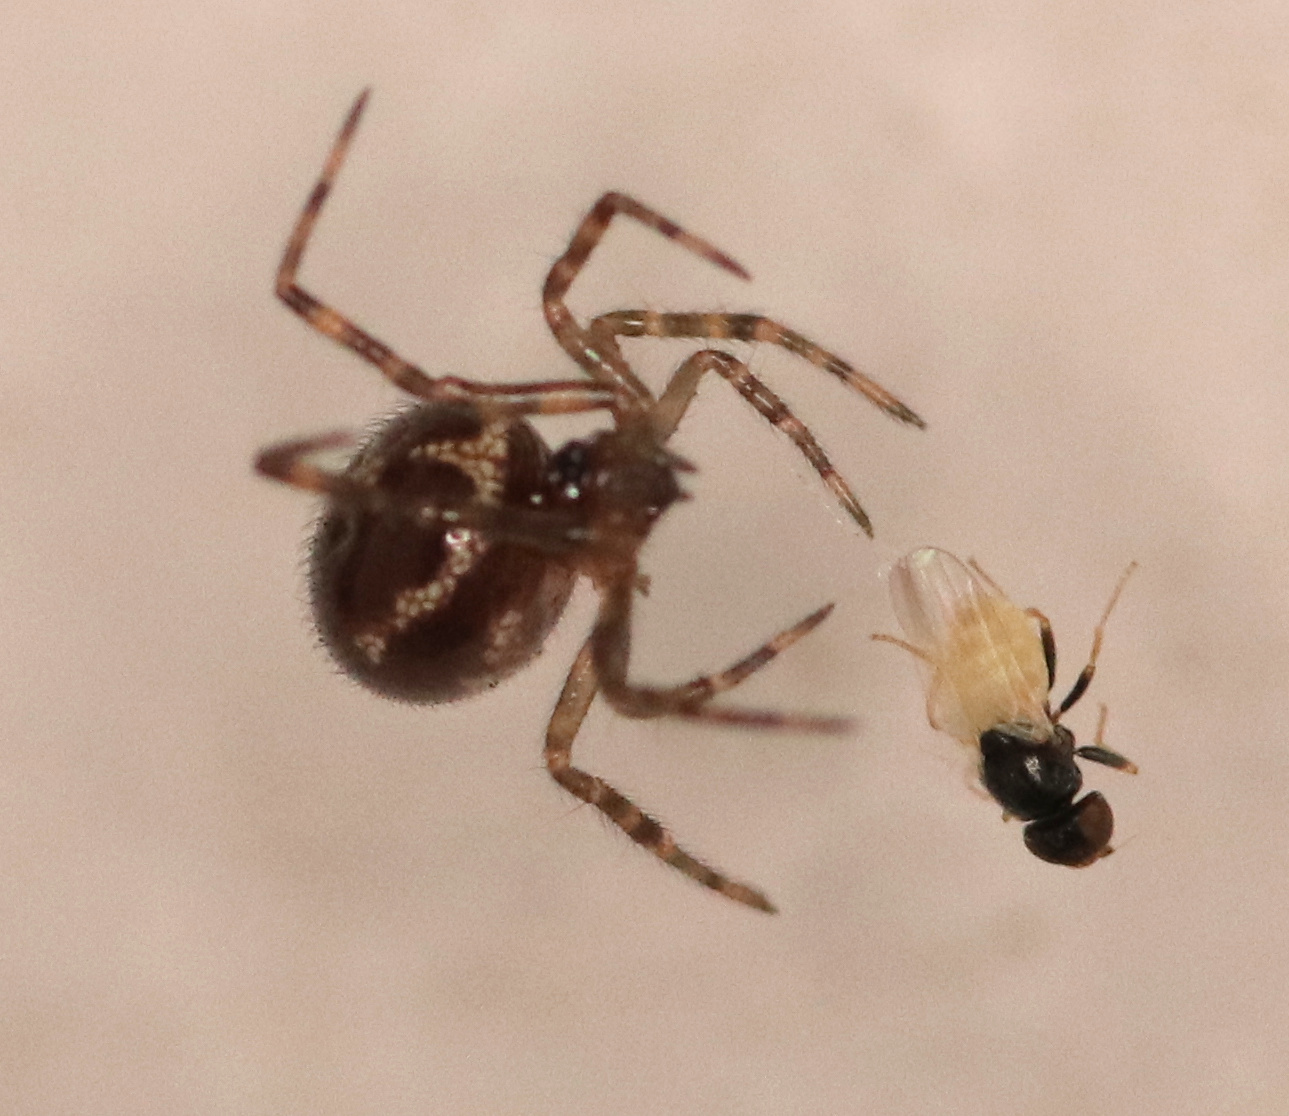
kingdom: Animalia
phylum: Arthropoda
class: Arachnida
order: Araneae
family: Theridiidae
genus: Steatoda
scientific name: Steatoda borealis
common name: Boreal combfoot
